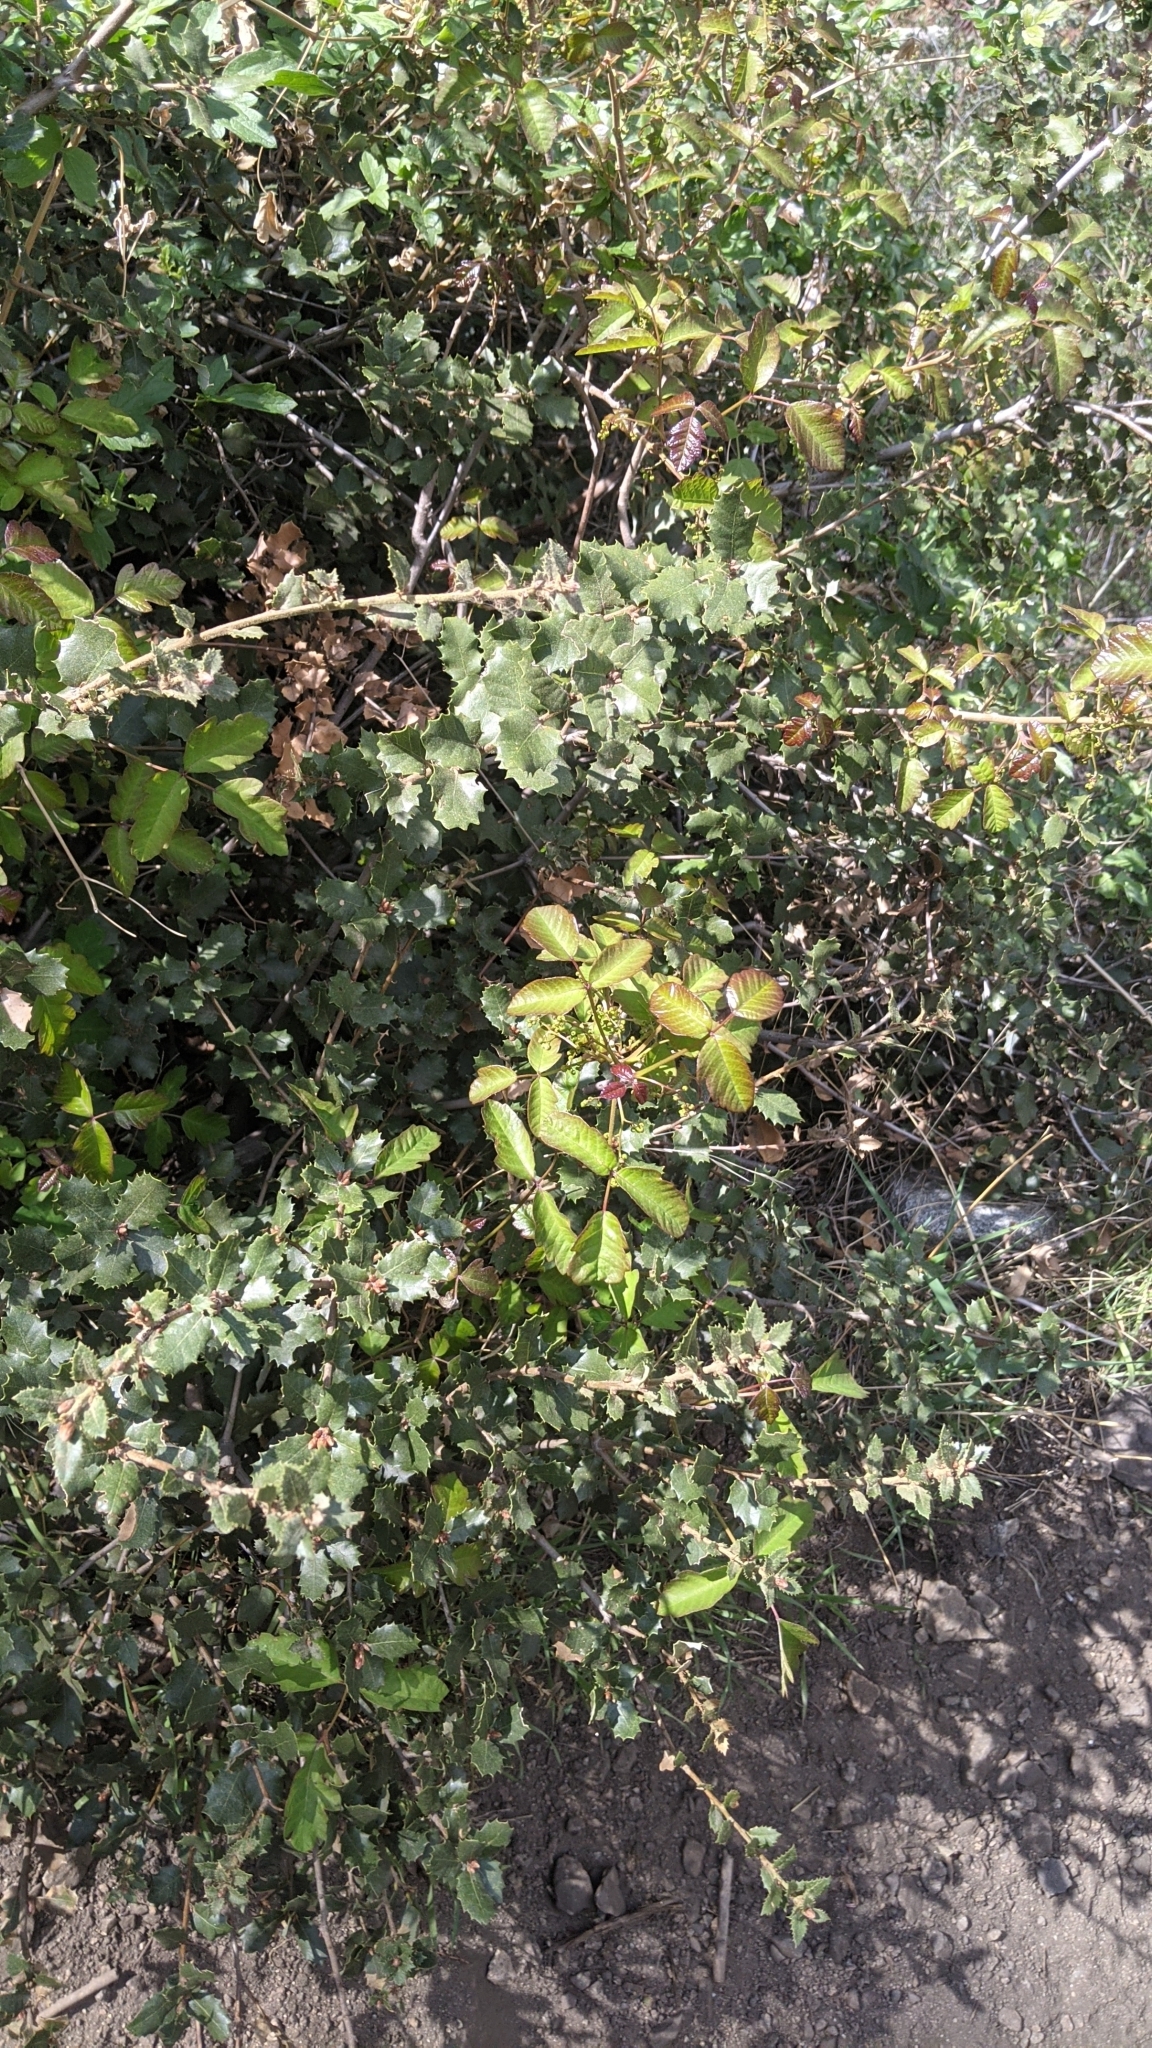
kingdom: Plantae
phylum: Tracheophyta
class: Magnoliopsida
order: Sapindales
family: Anacardiaceae
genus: Toxicodendron
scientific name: Toxicodendron diversilobum
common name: Pacific poison-oak
